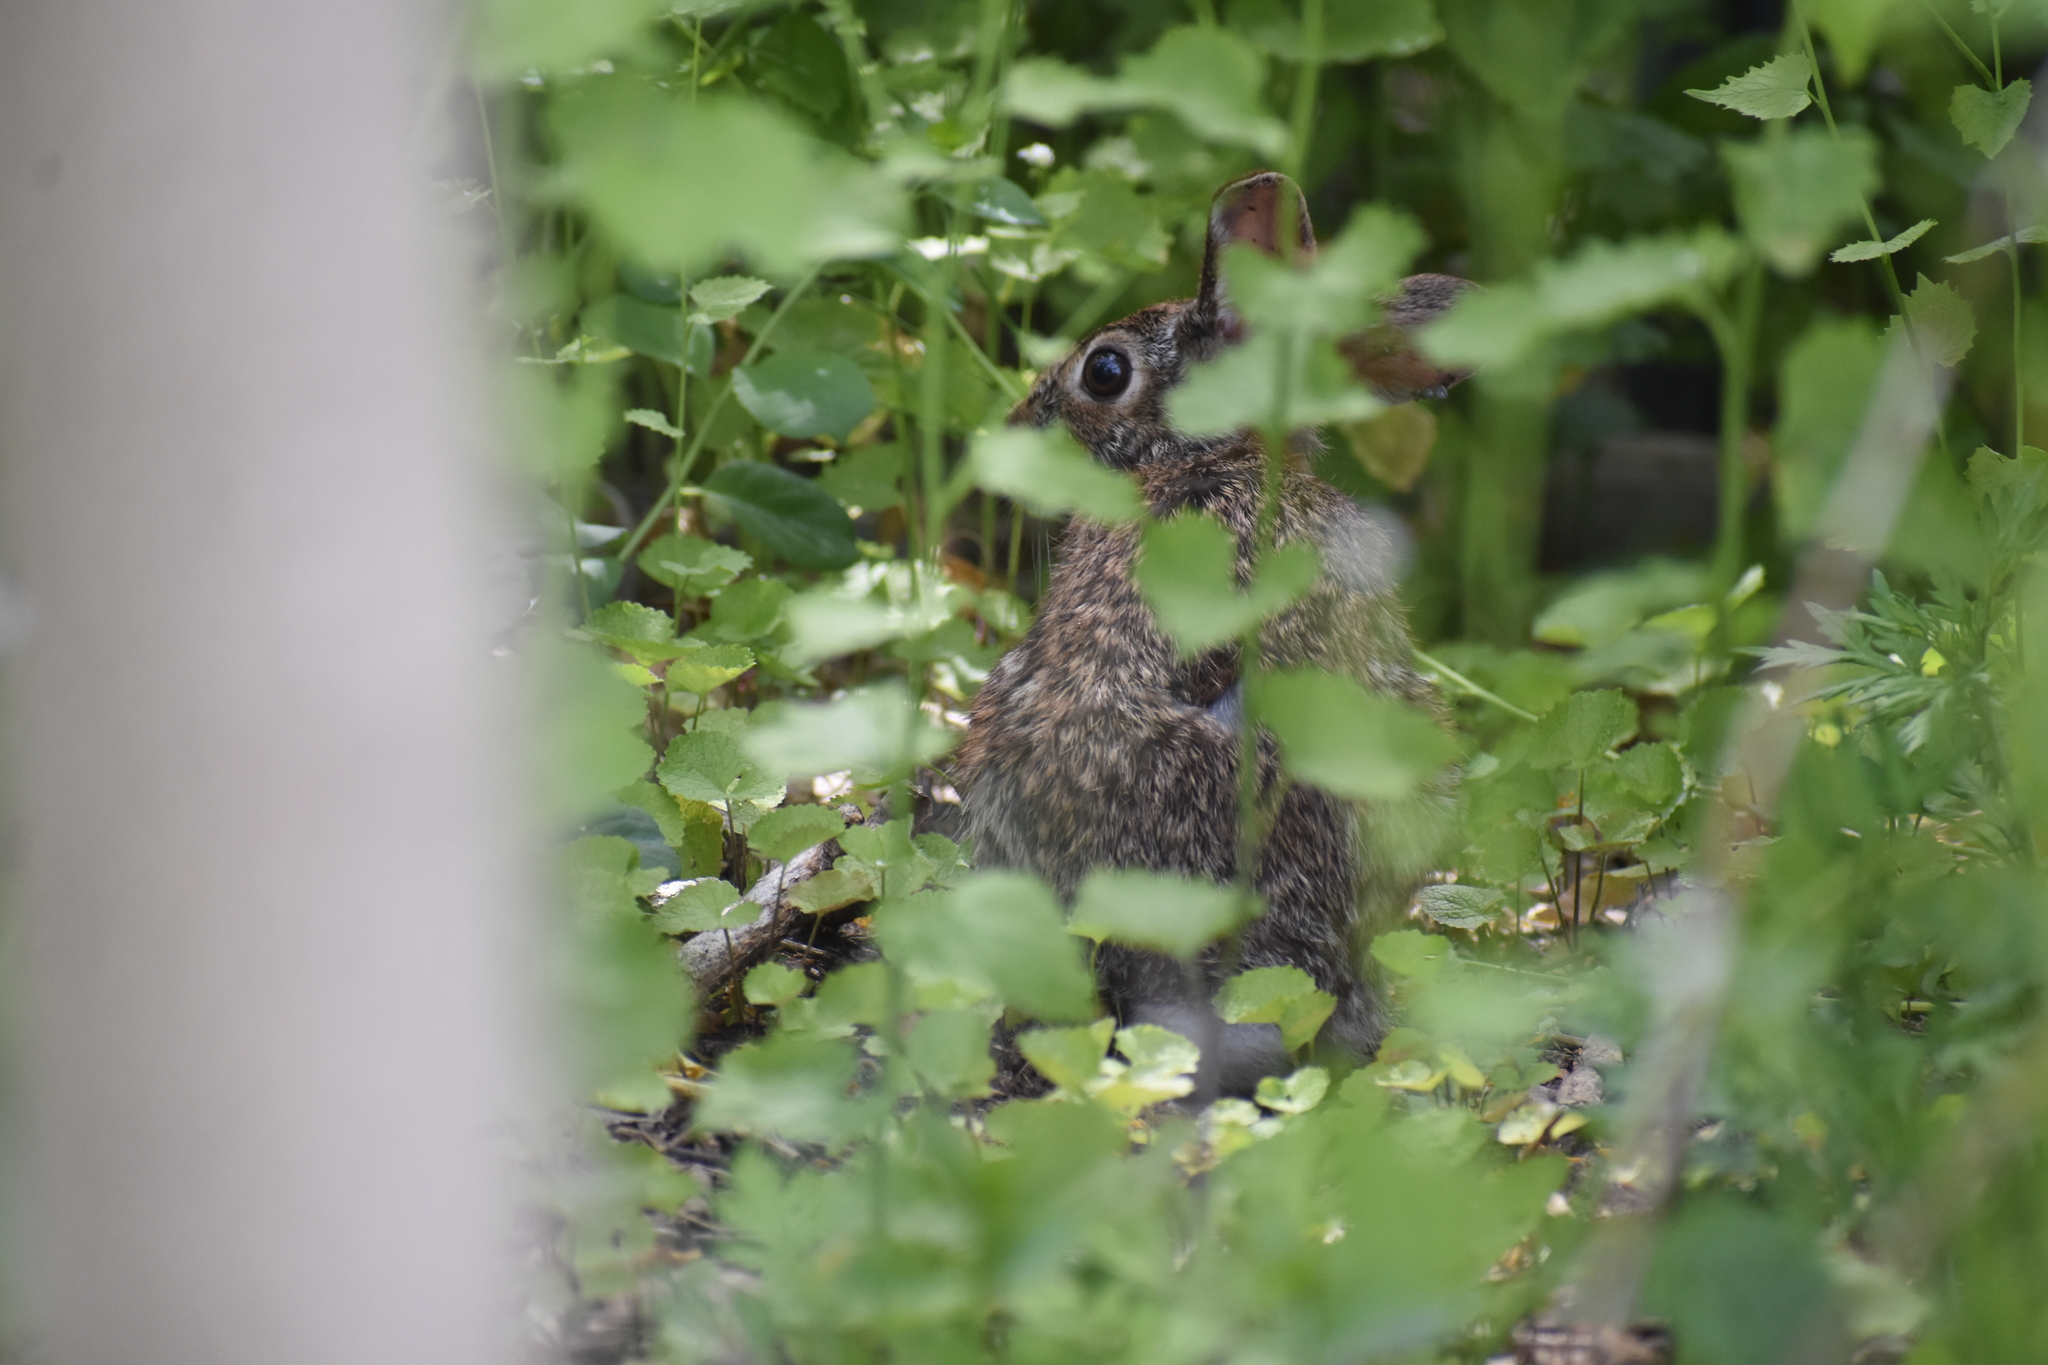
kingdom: Animalia
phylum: Chordata
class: Mammalia
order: Lagomorpha
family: Leporidae
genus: Sylvilagus
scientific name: Sylvilagus floridanus
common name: Eastern cottontail
